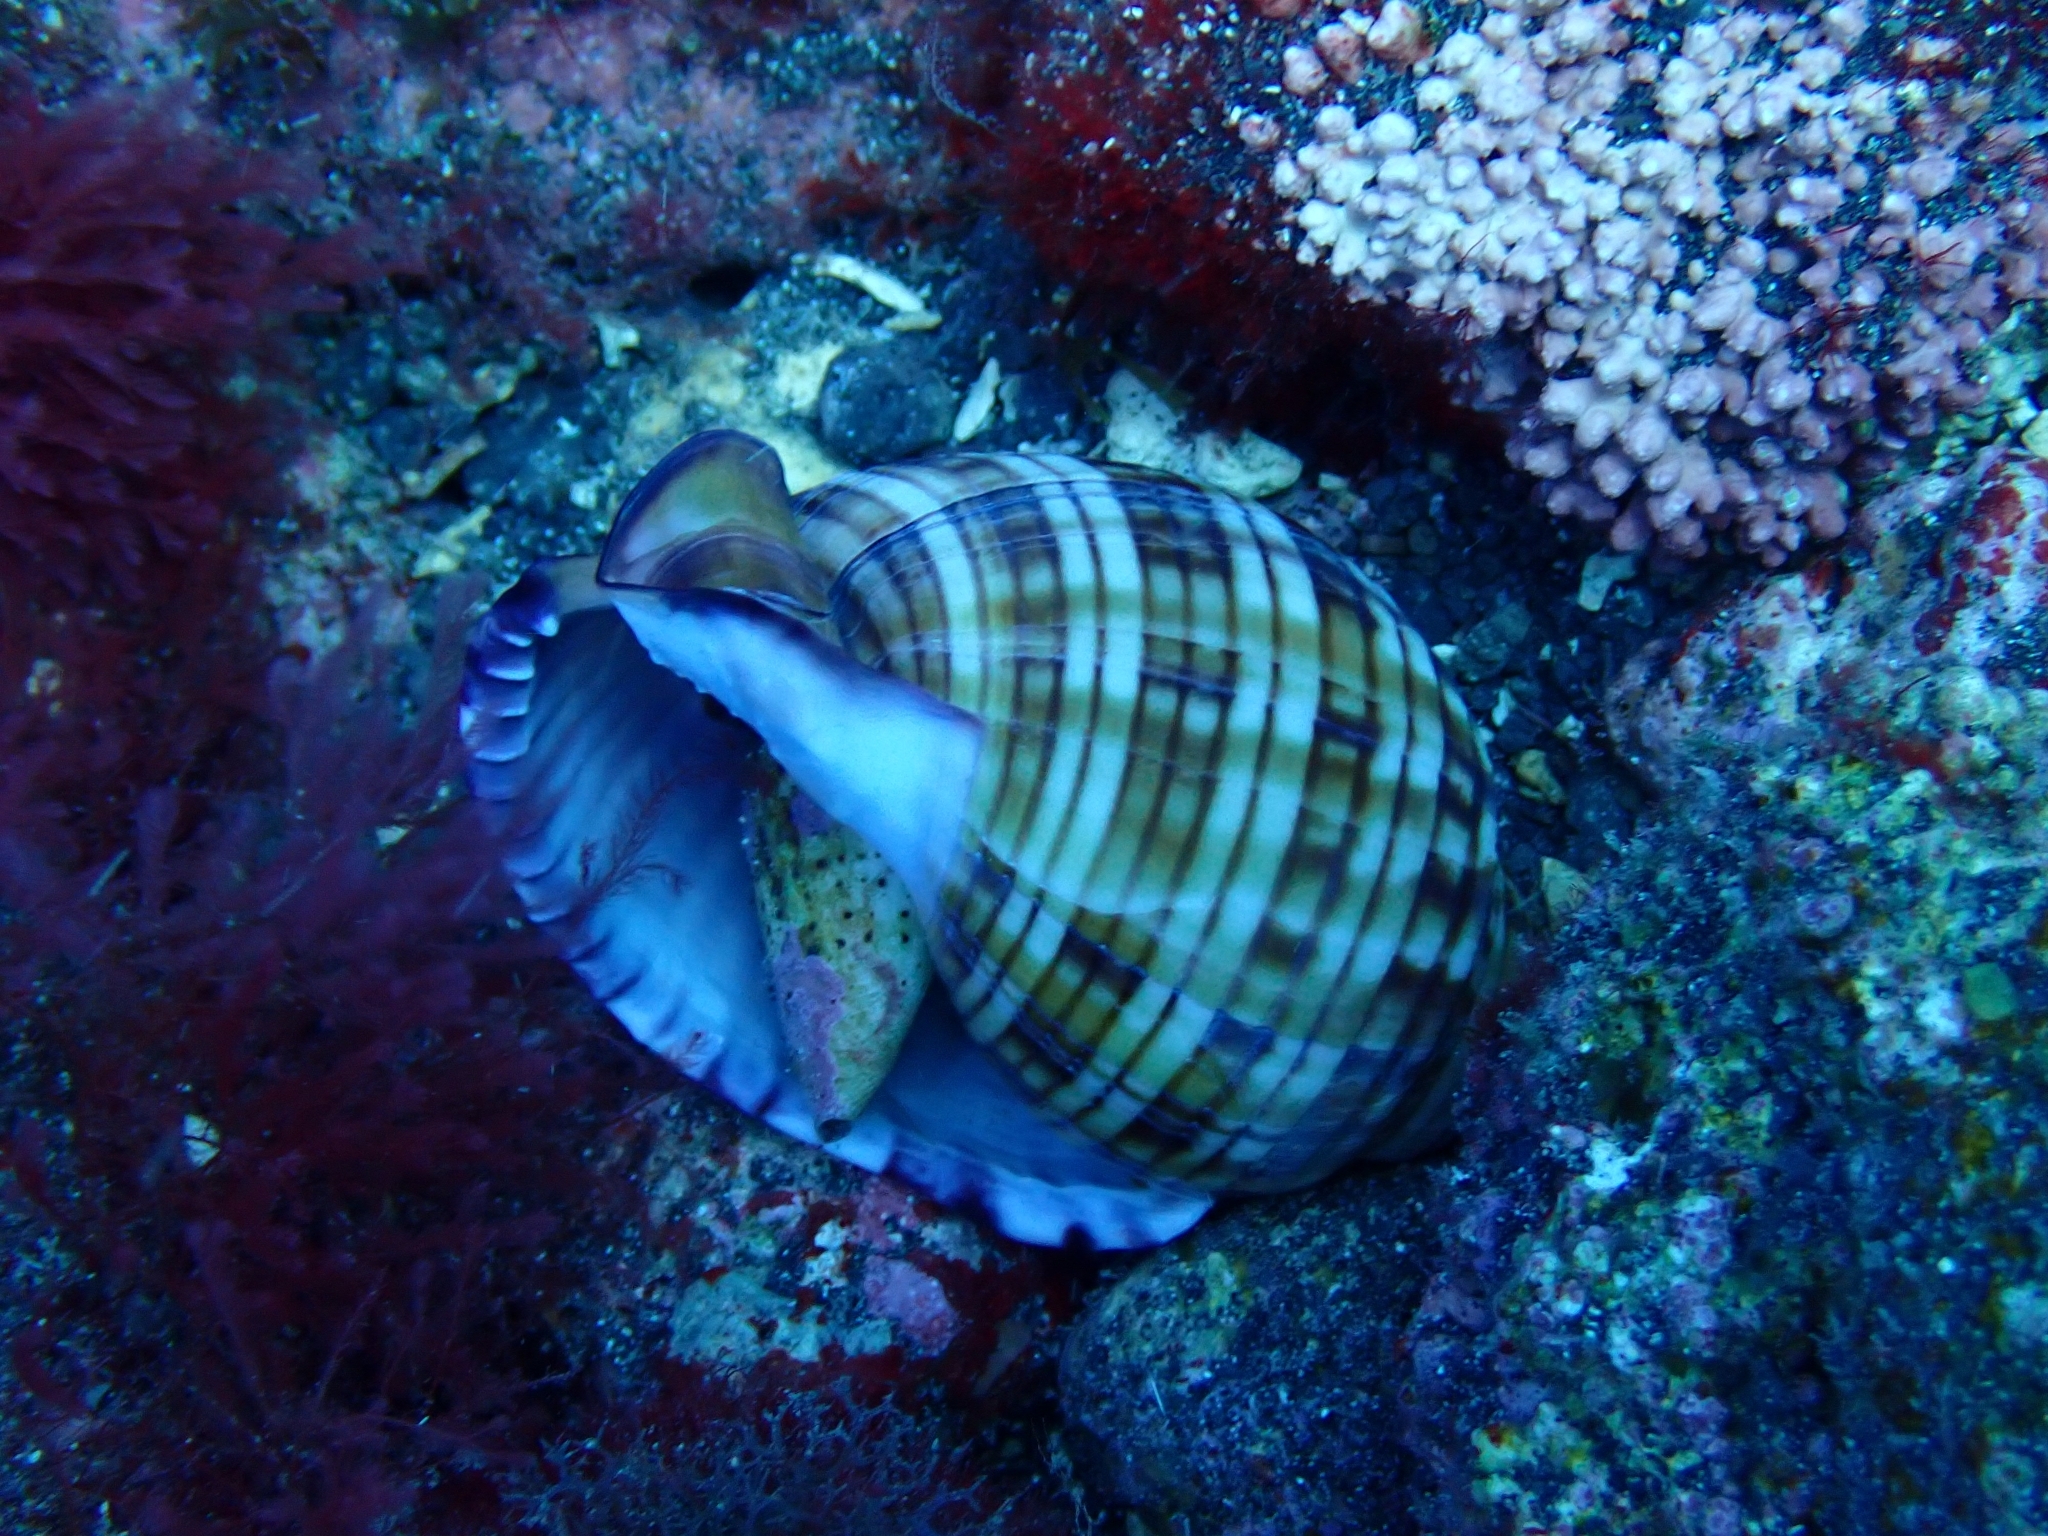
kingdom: Animalia
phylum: Mollusca
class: Gastropoda
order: Littorinimorpha
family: Cassidae
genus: Semicassis
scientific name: Semicassis undulata
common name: Mediterranean bonnet
